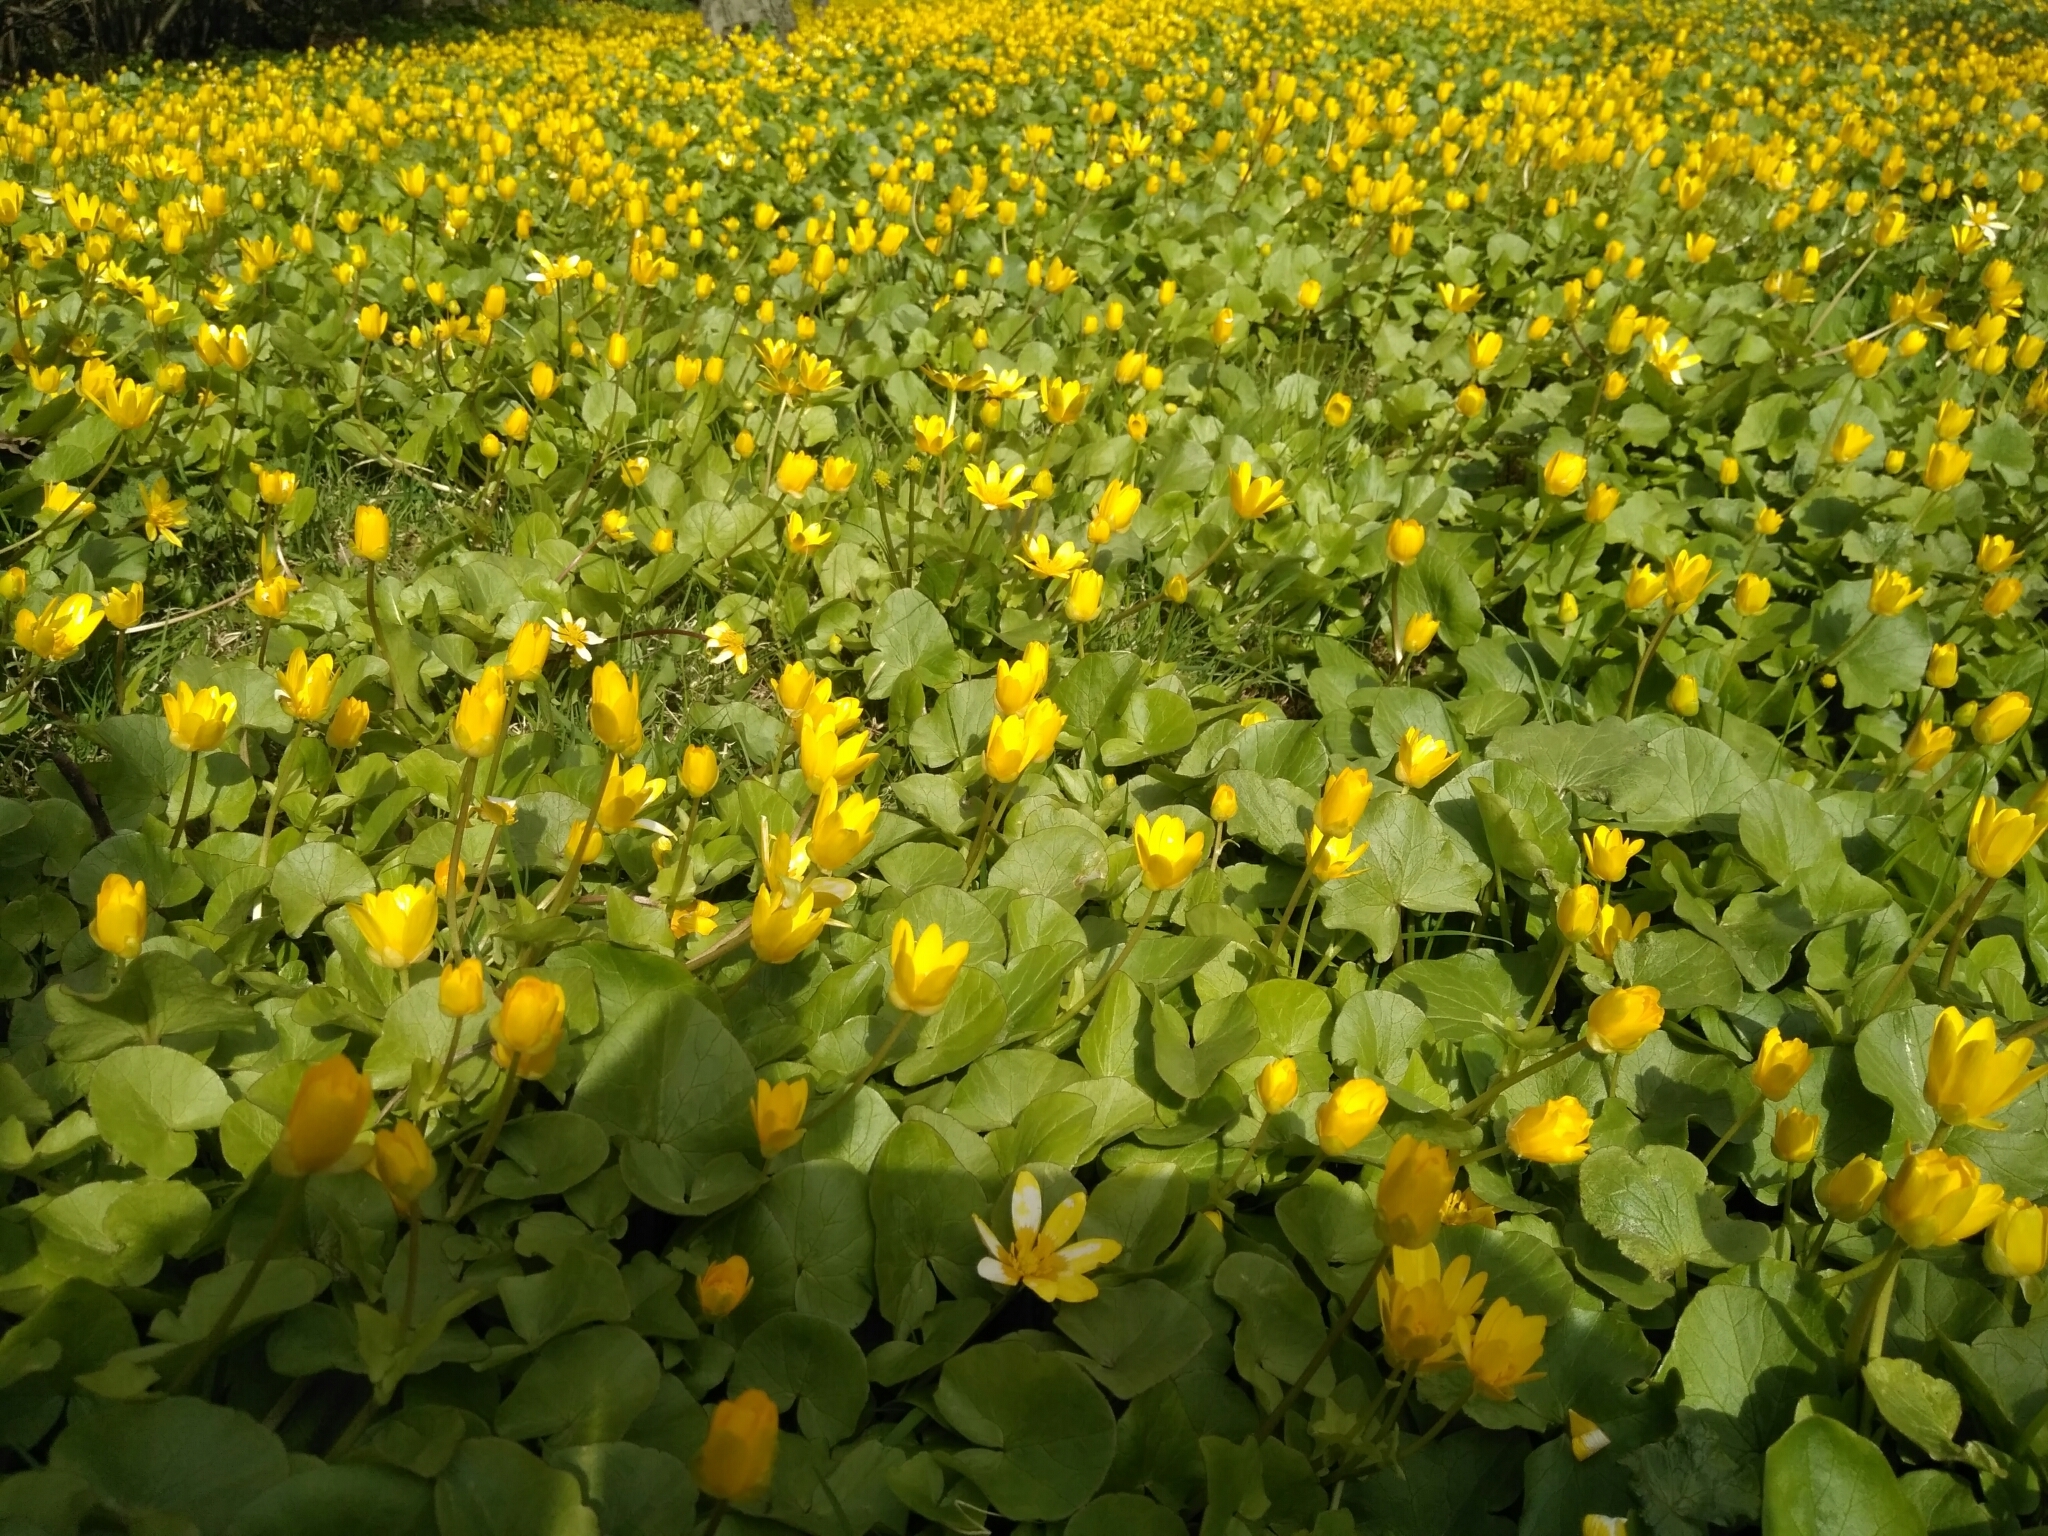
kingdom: Plantae
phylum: Tracheophyta
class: Magnoliopsida
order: Ranunculales
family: Ranunculaceae
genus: Ficaria
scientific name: Ficaria verna
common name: Lesser celandine
